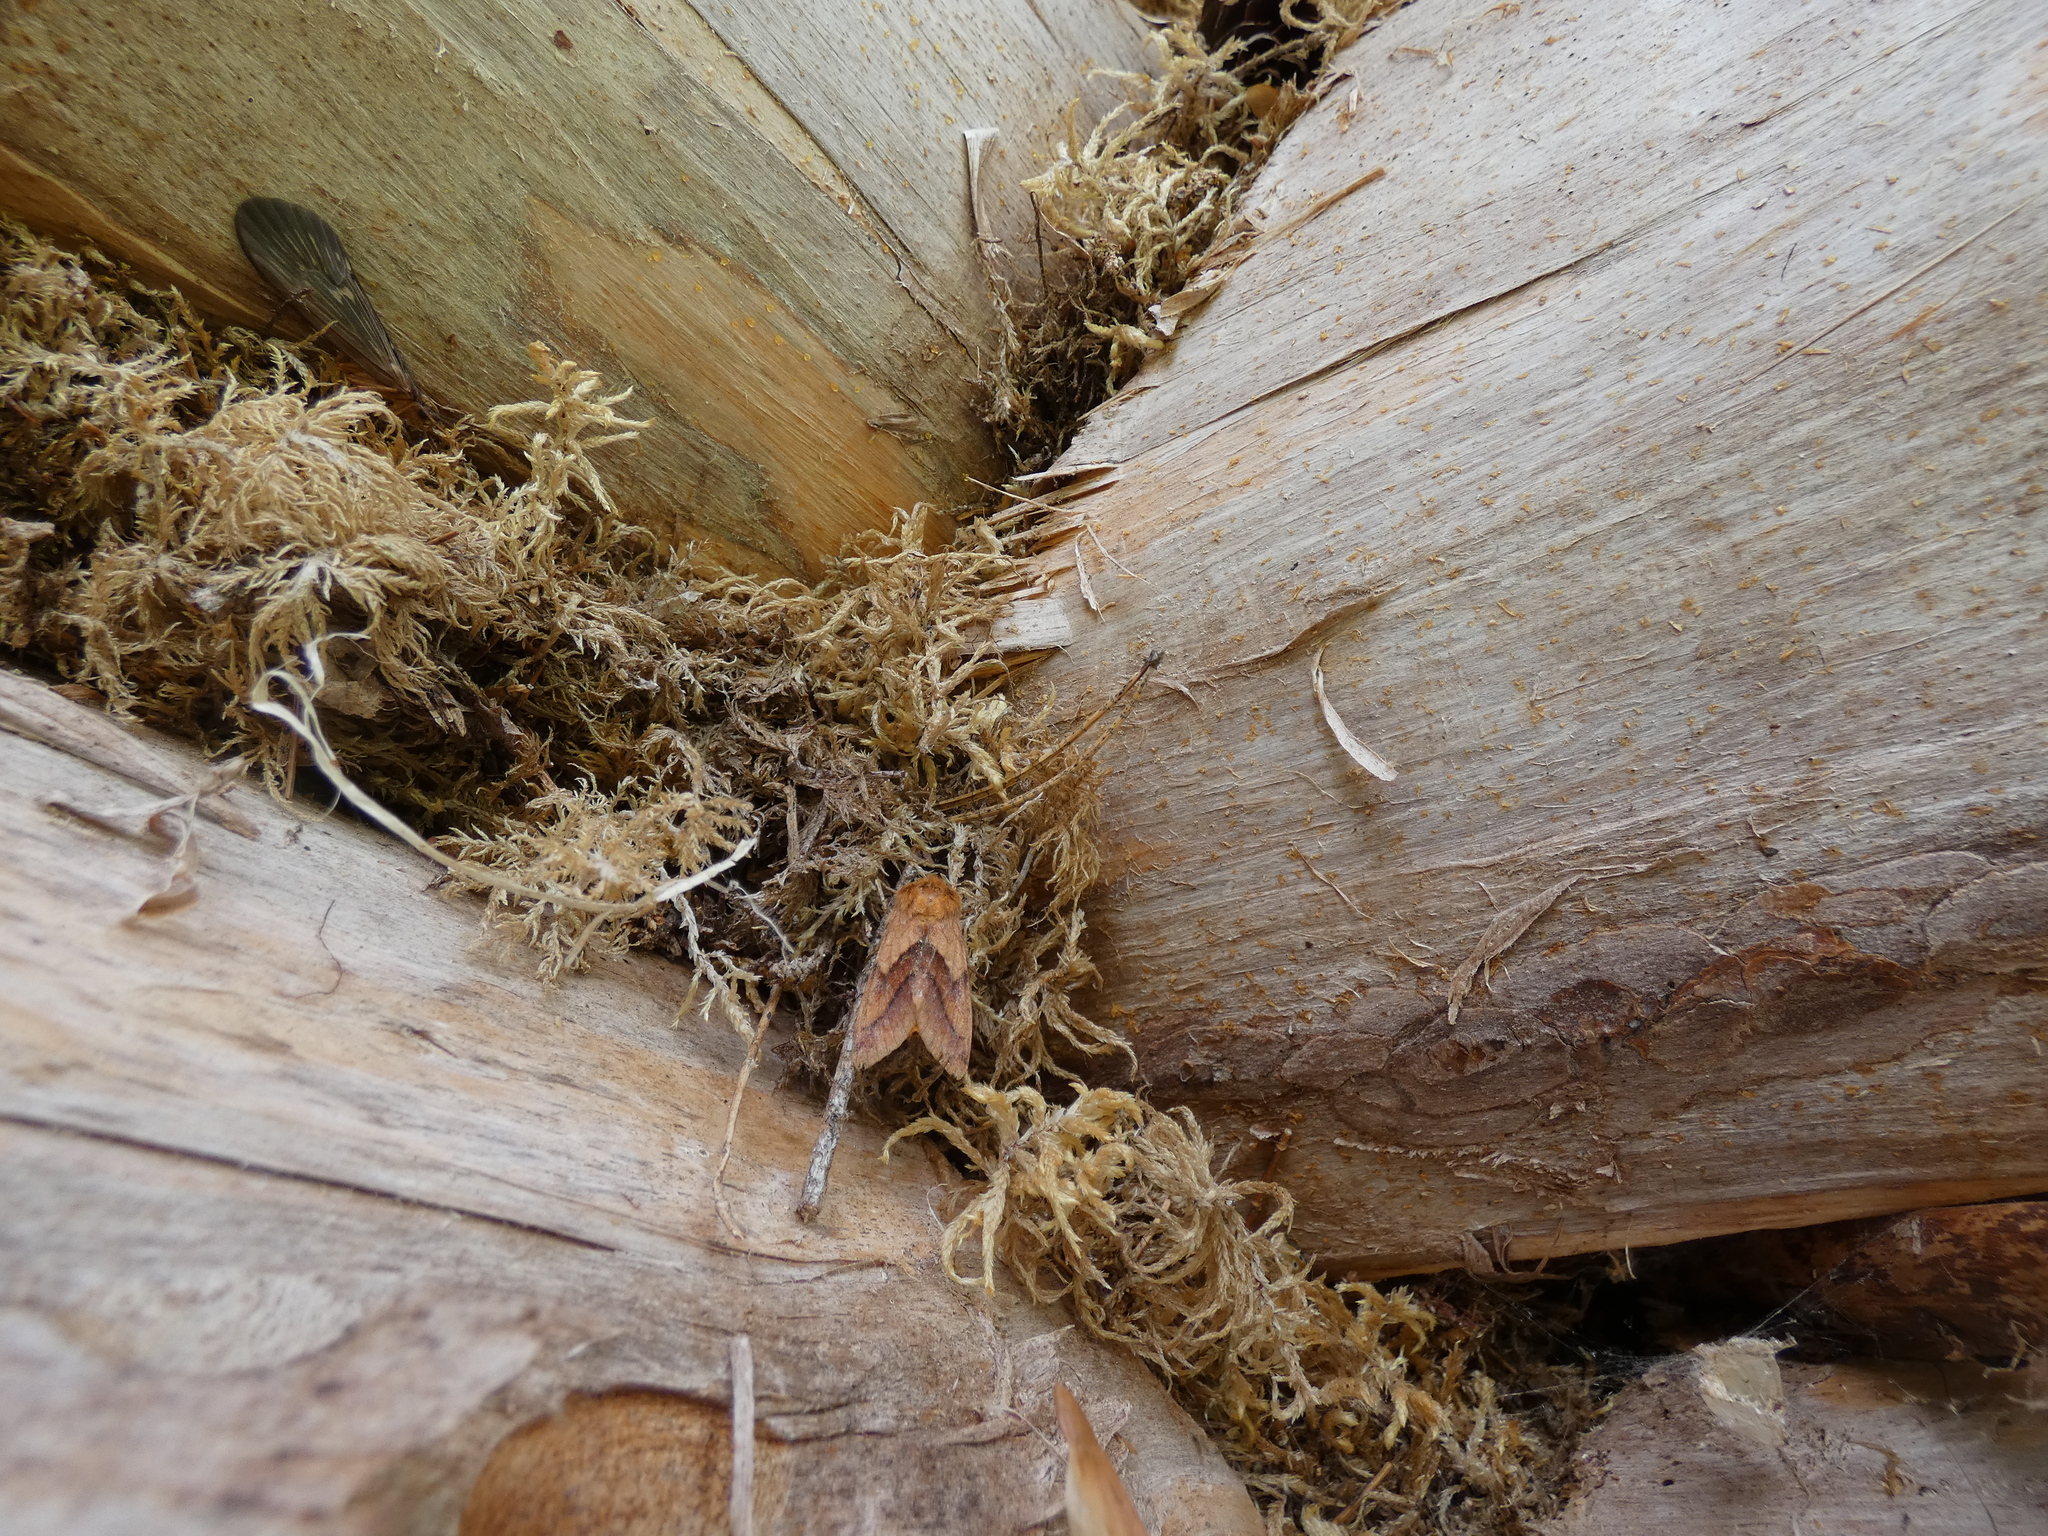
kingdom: Animalia
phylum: Arthropoda
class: Insecta
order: Lepidoptera
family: Noctuidae
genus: Pyrrhia
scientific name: Pyrrhia exprimens
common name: Purple-lined sallow
